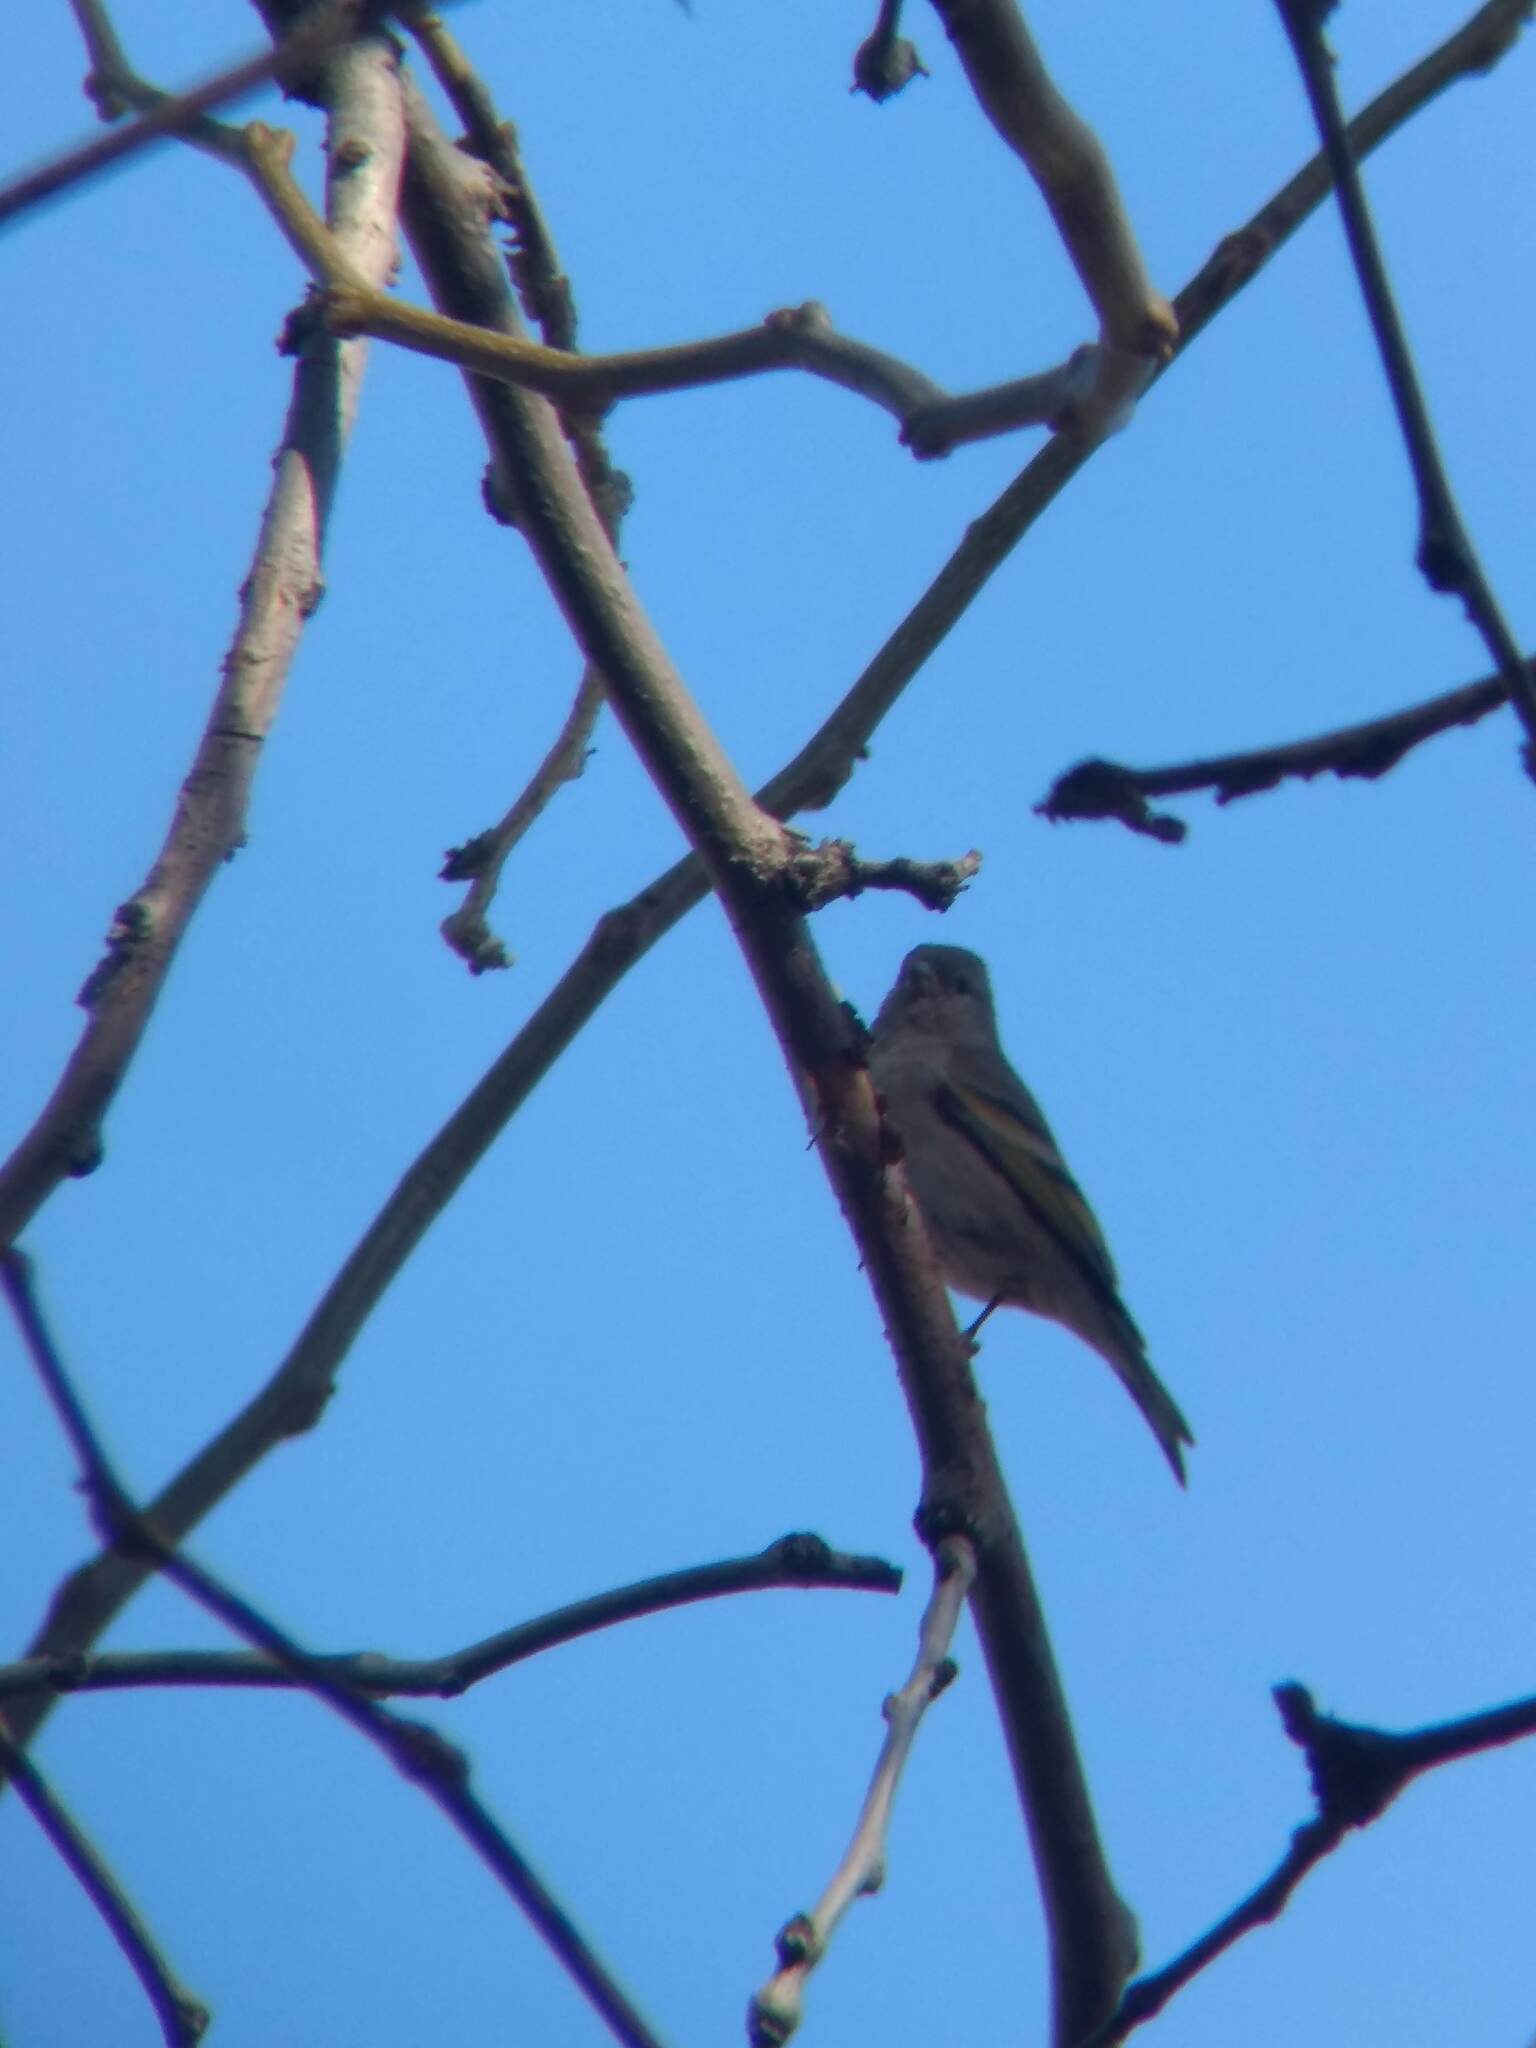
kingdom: Animalia
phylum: Chordata
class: Aves
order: Passeriformes
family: Fringillidae
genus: Spinus
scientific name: Spinus lawrencei
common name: Lawrence's goldfinch
